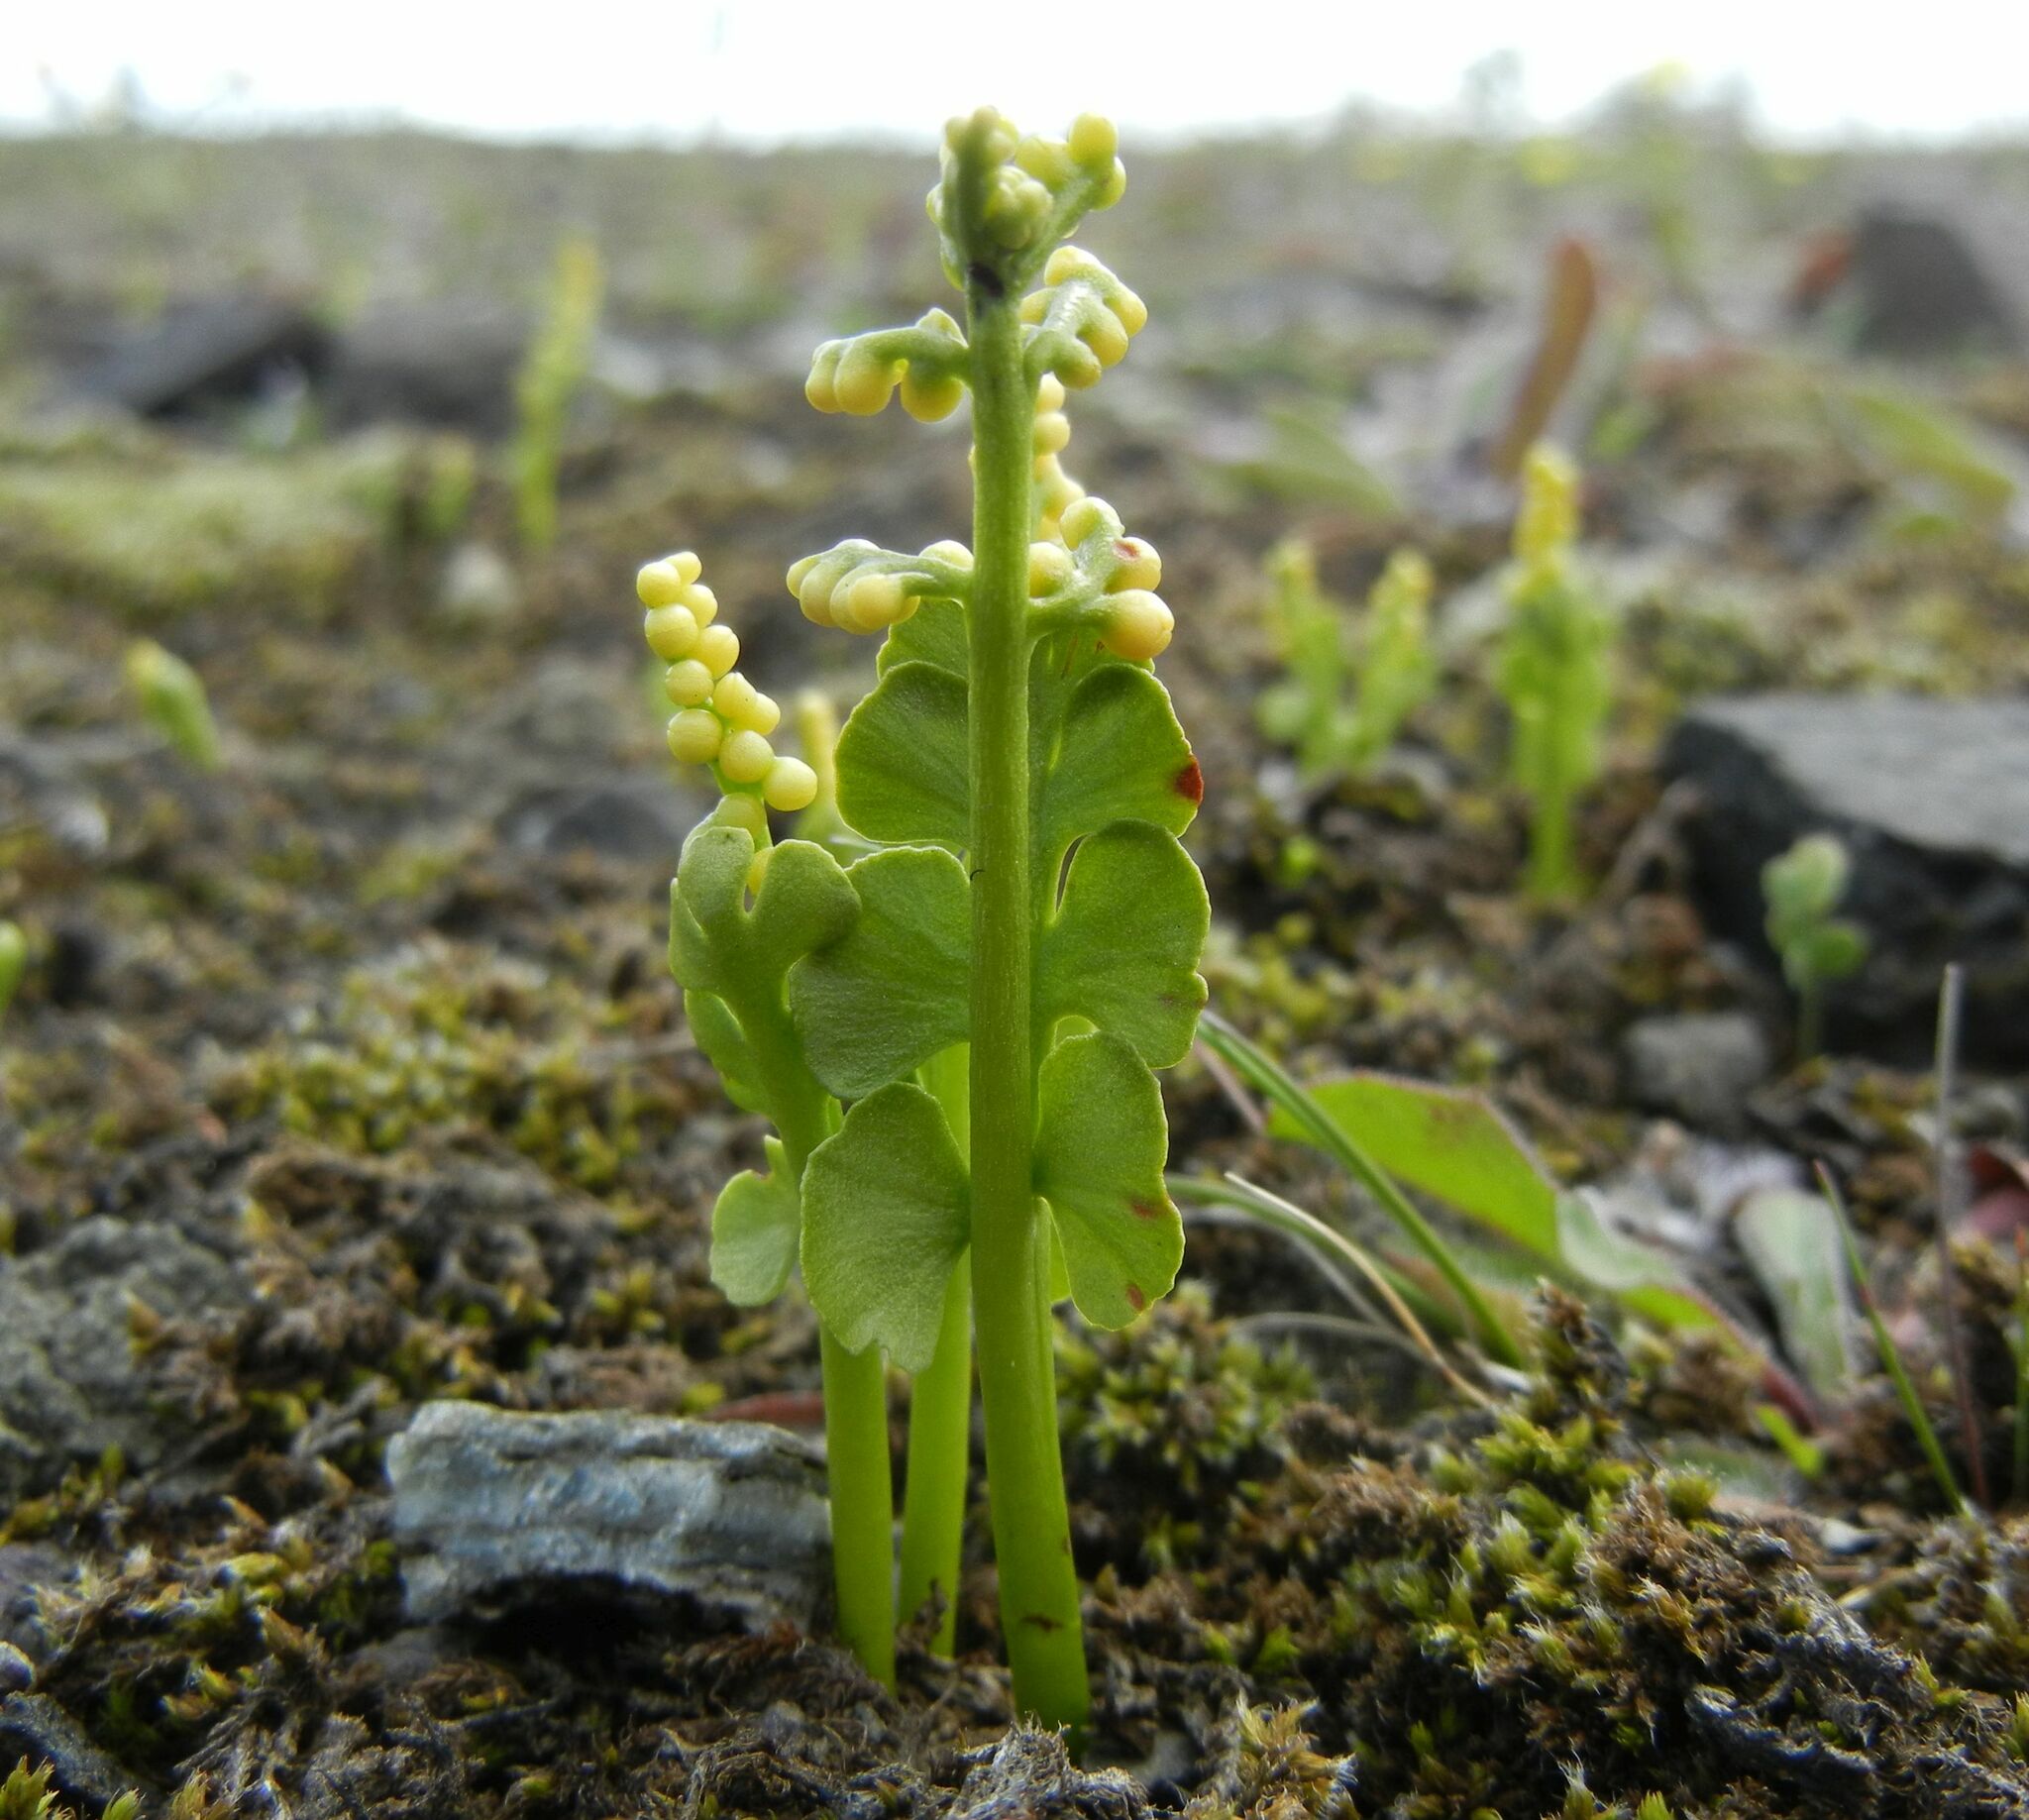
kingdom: Plantae
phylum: Tracheophyta
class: Polypodiopsida
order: Ophioglossales
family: Ophioglossaceae
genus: Botrychium
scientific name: Botrychium lunaria
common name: Moonwort
